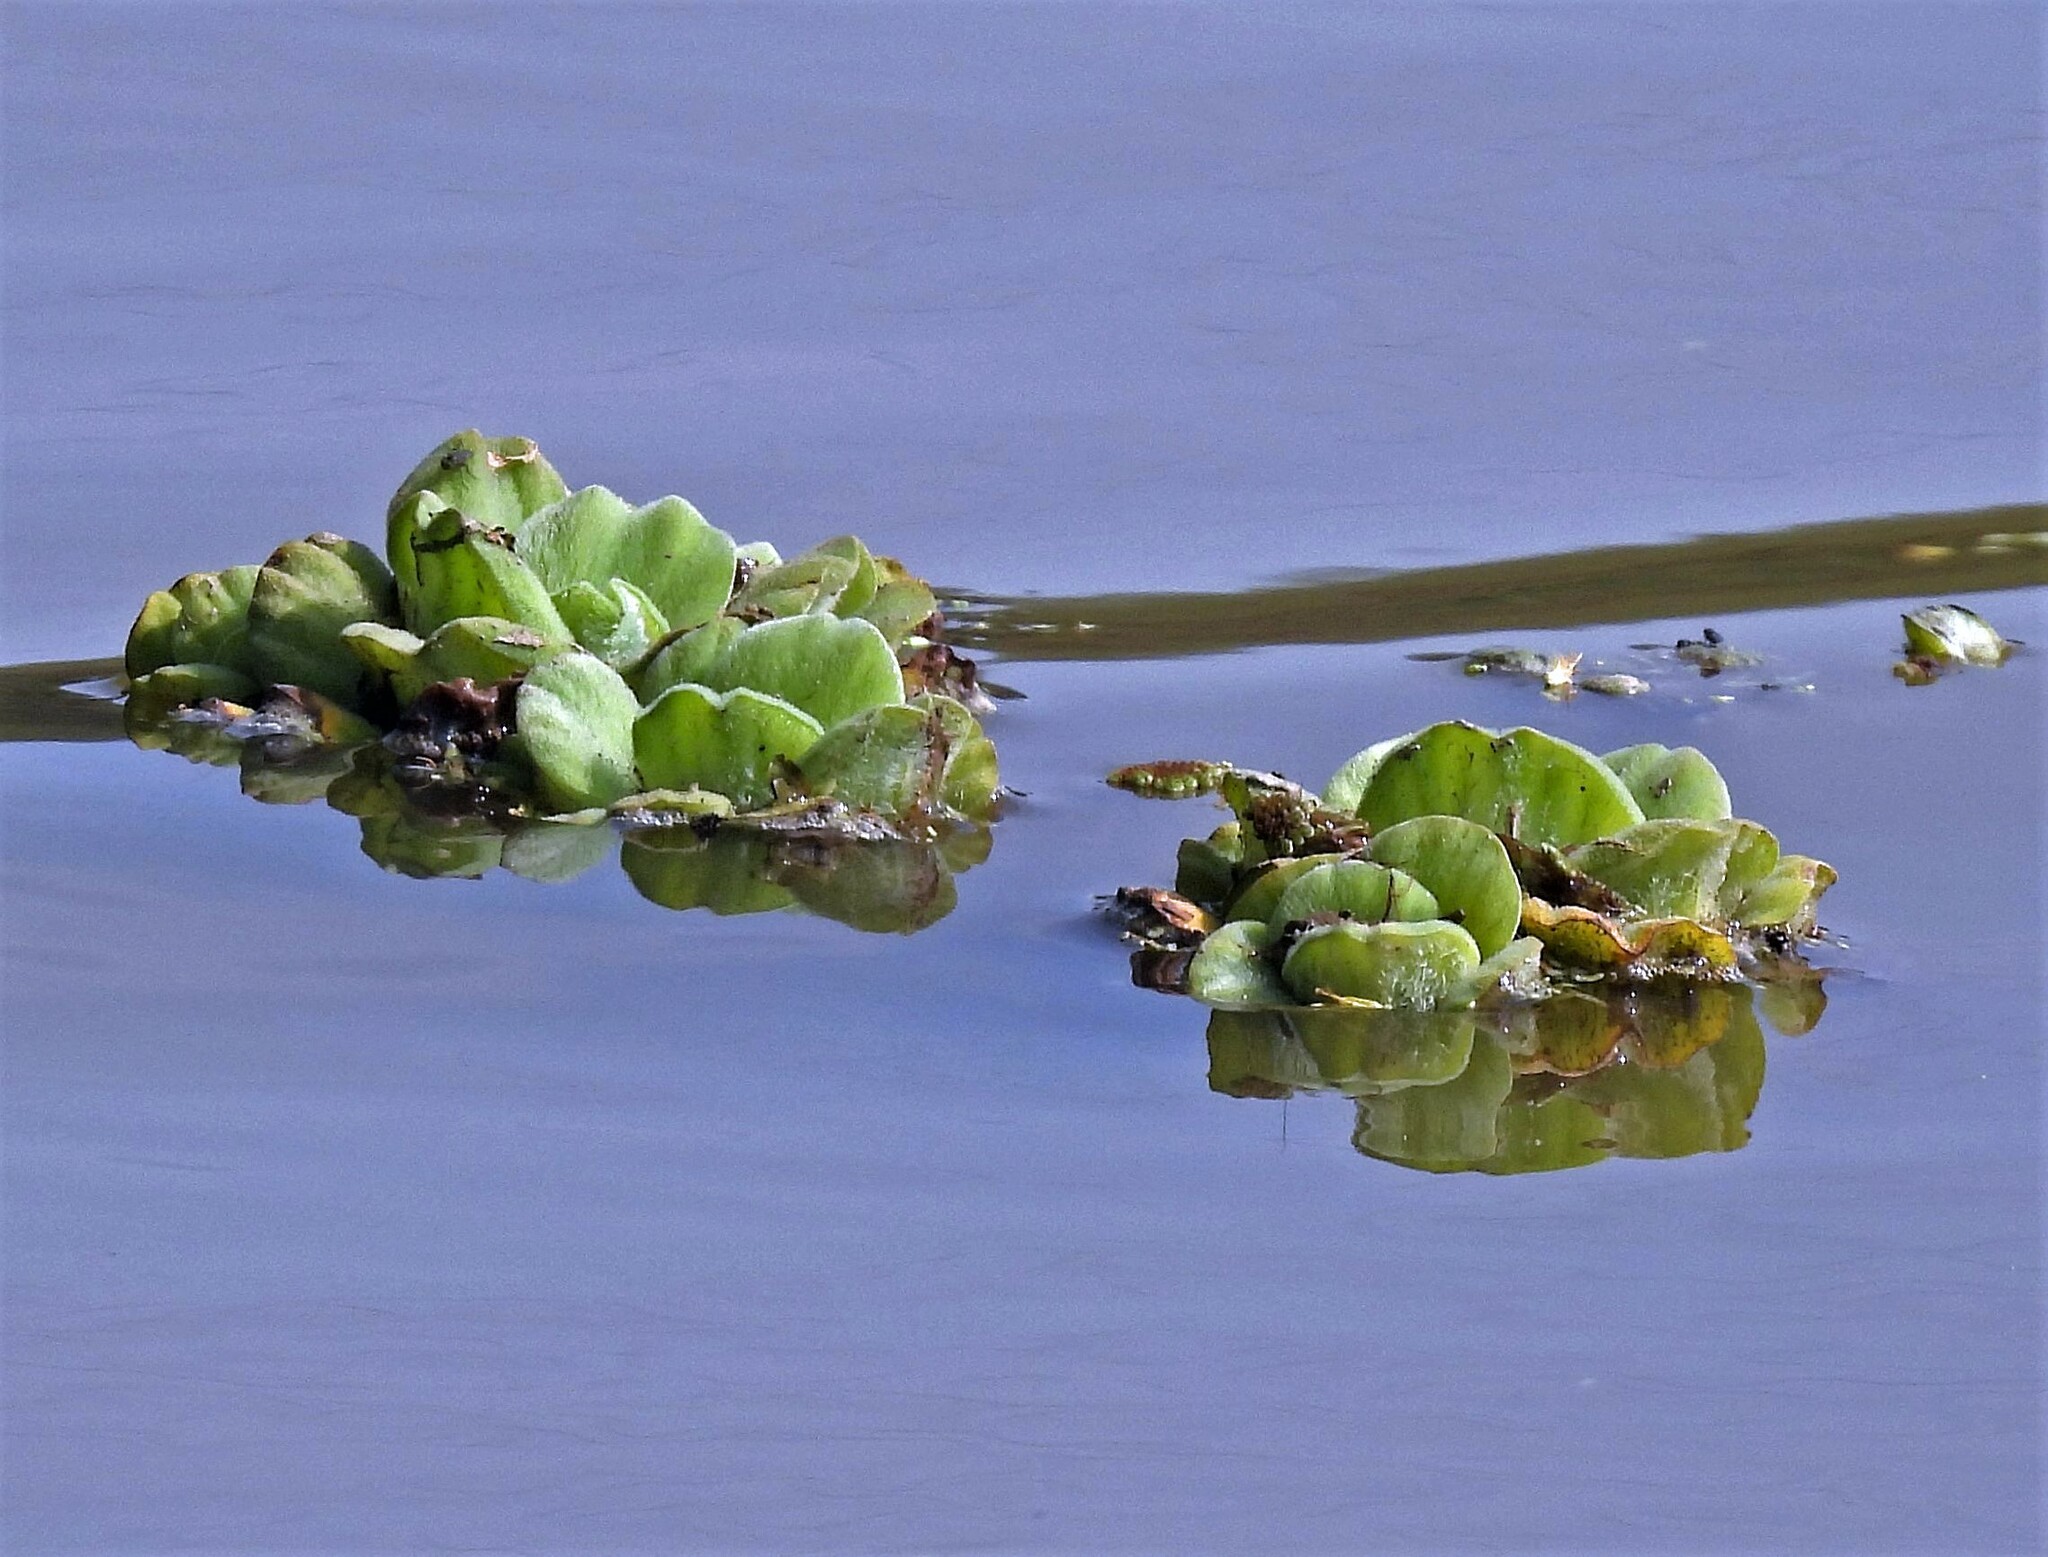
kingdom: Plantae
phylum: Tracheophyta
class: Liliopsida
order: Alismatales
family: Araceae
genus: Pistia
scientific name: Pistia stratiotes
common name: Water lettuce
